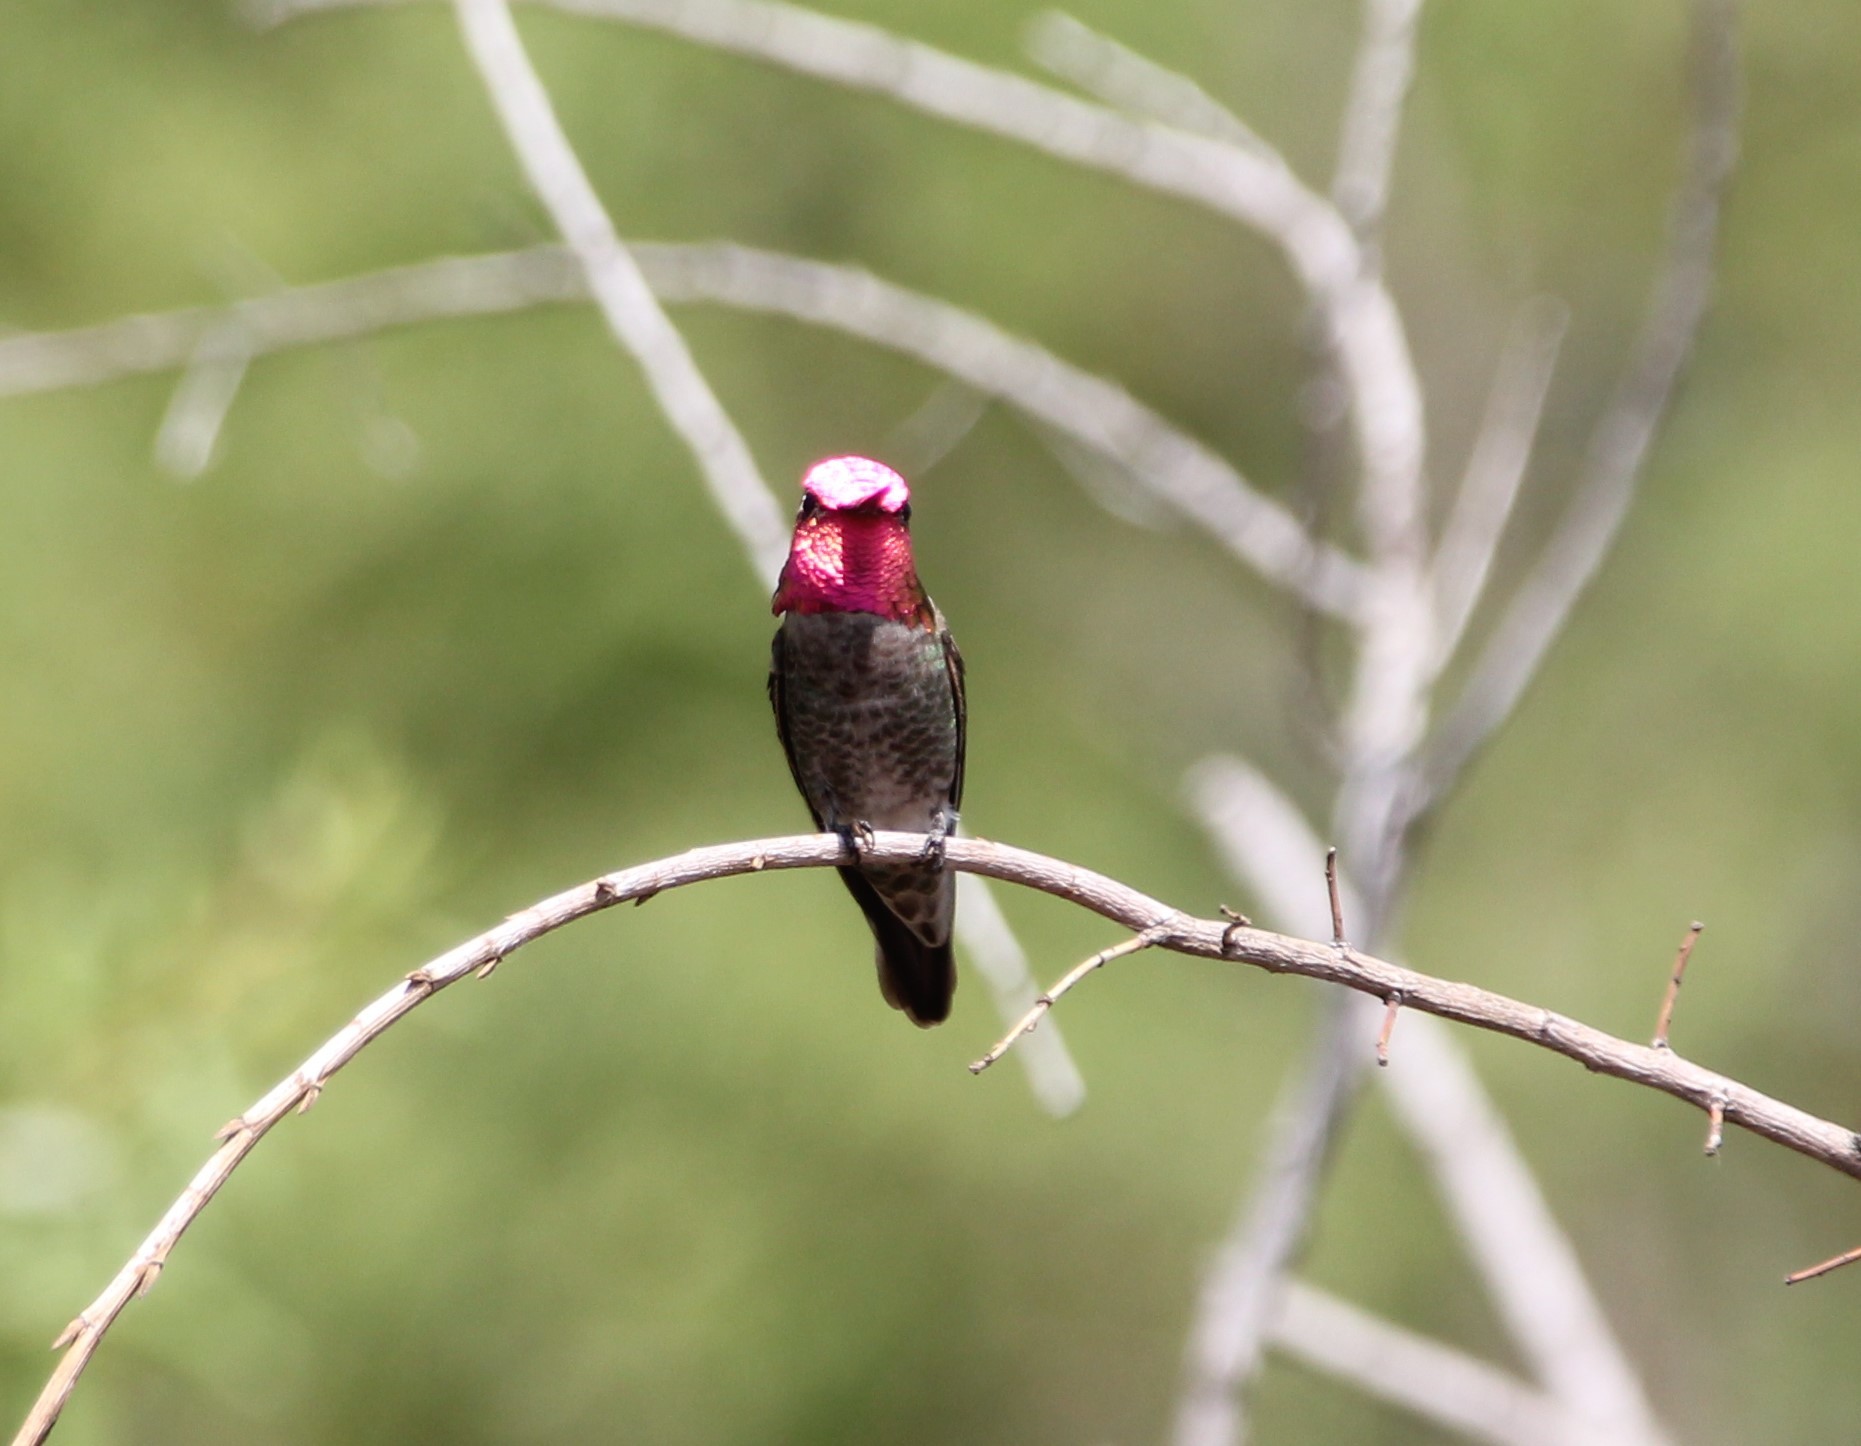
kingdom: Animalia
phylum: Chordata
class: Aves
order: Apodiformes
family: Trochilidae
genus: Calypte
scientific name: Calypte anna
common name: Anna's hummingbird
